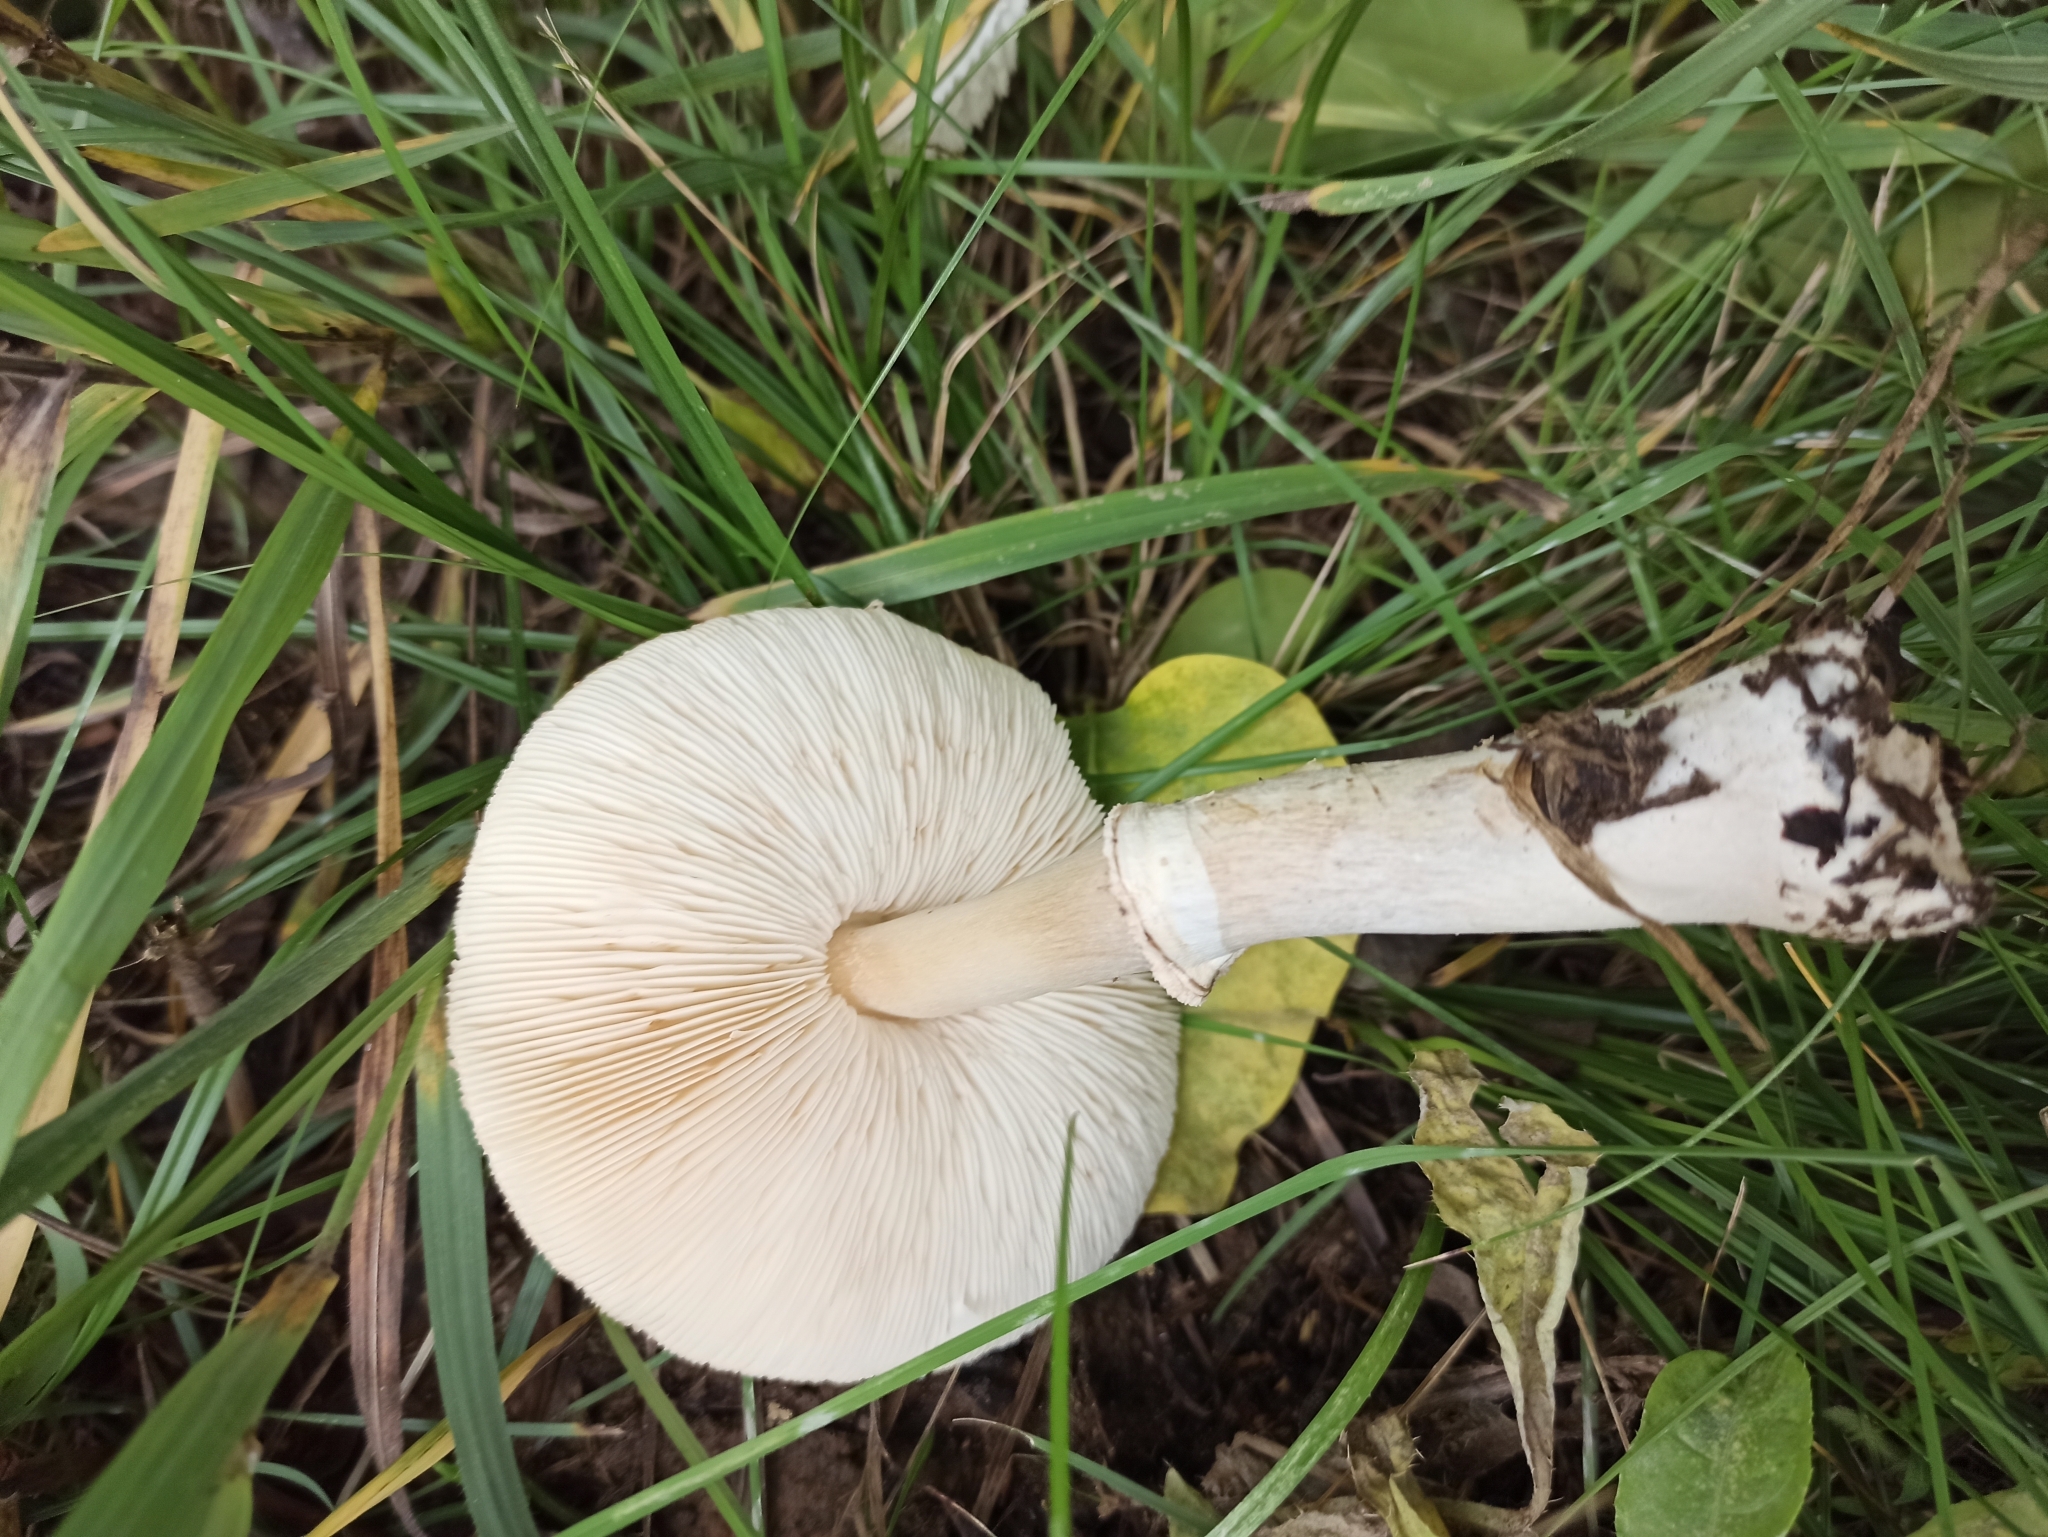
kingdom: Fungi
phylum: Basidiomycota
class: Agaricomycetes
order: Agaricales
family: Agaricaceae
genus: Leucoagaricus
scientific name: Leucoagaricus leucothites
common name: White dapperling
